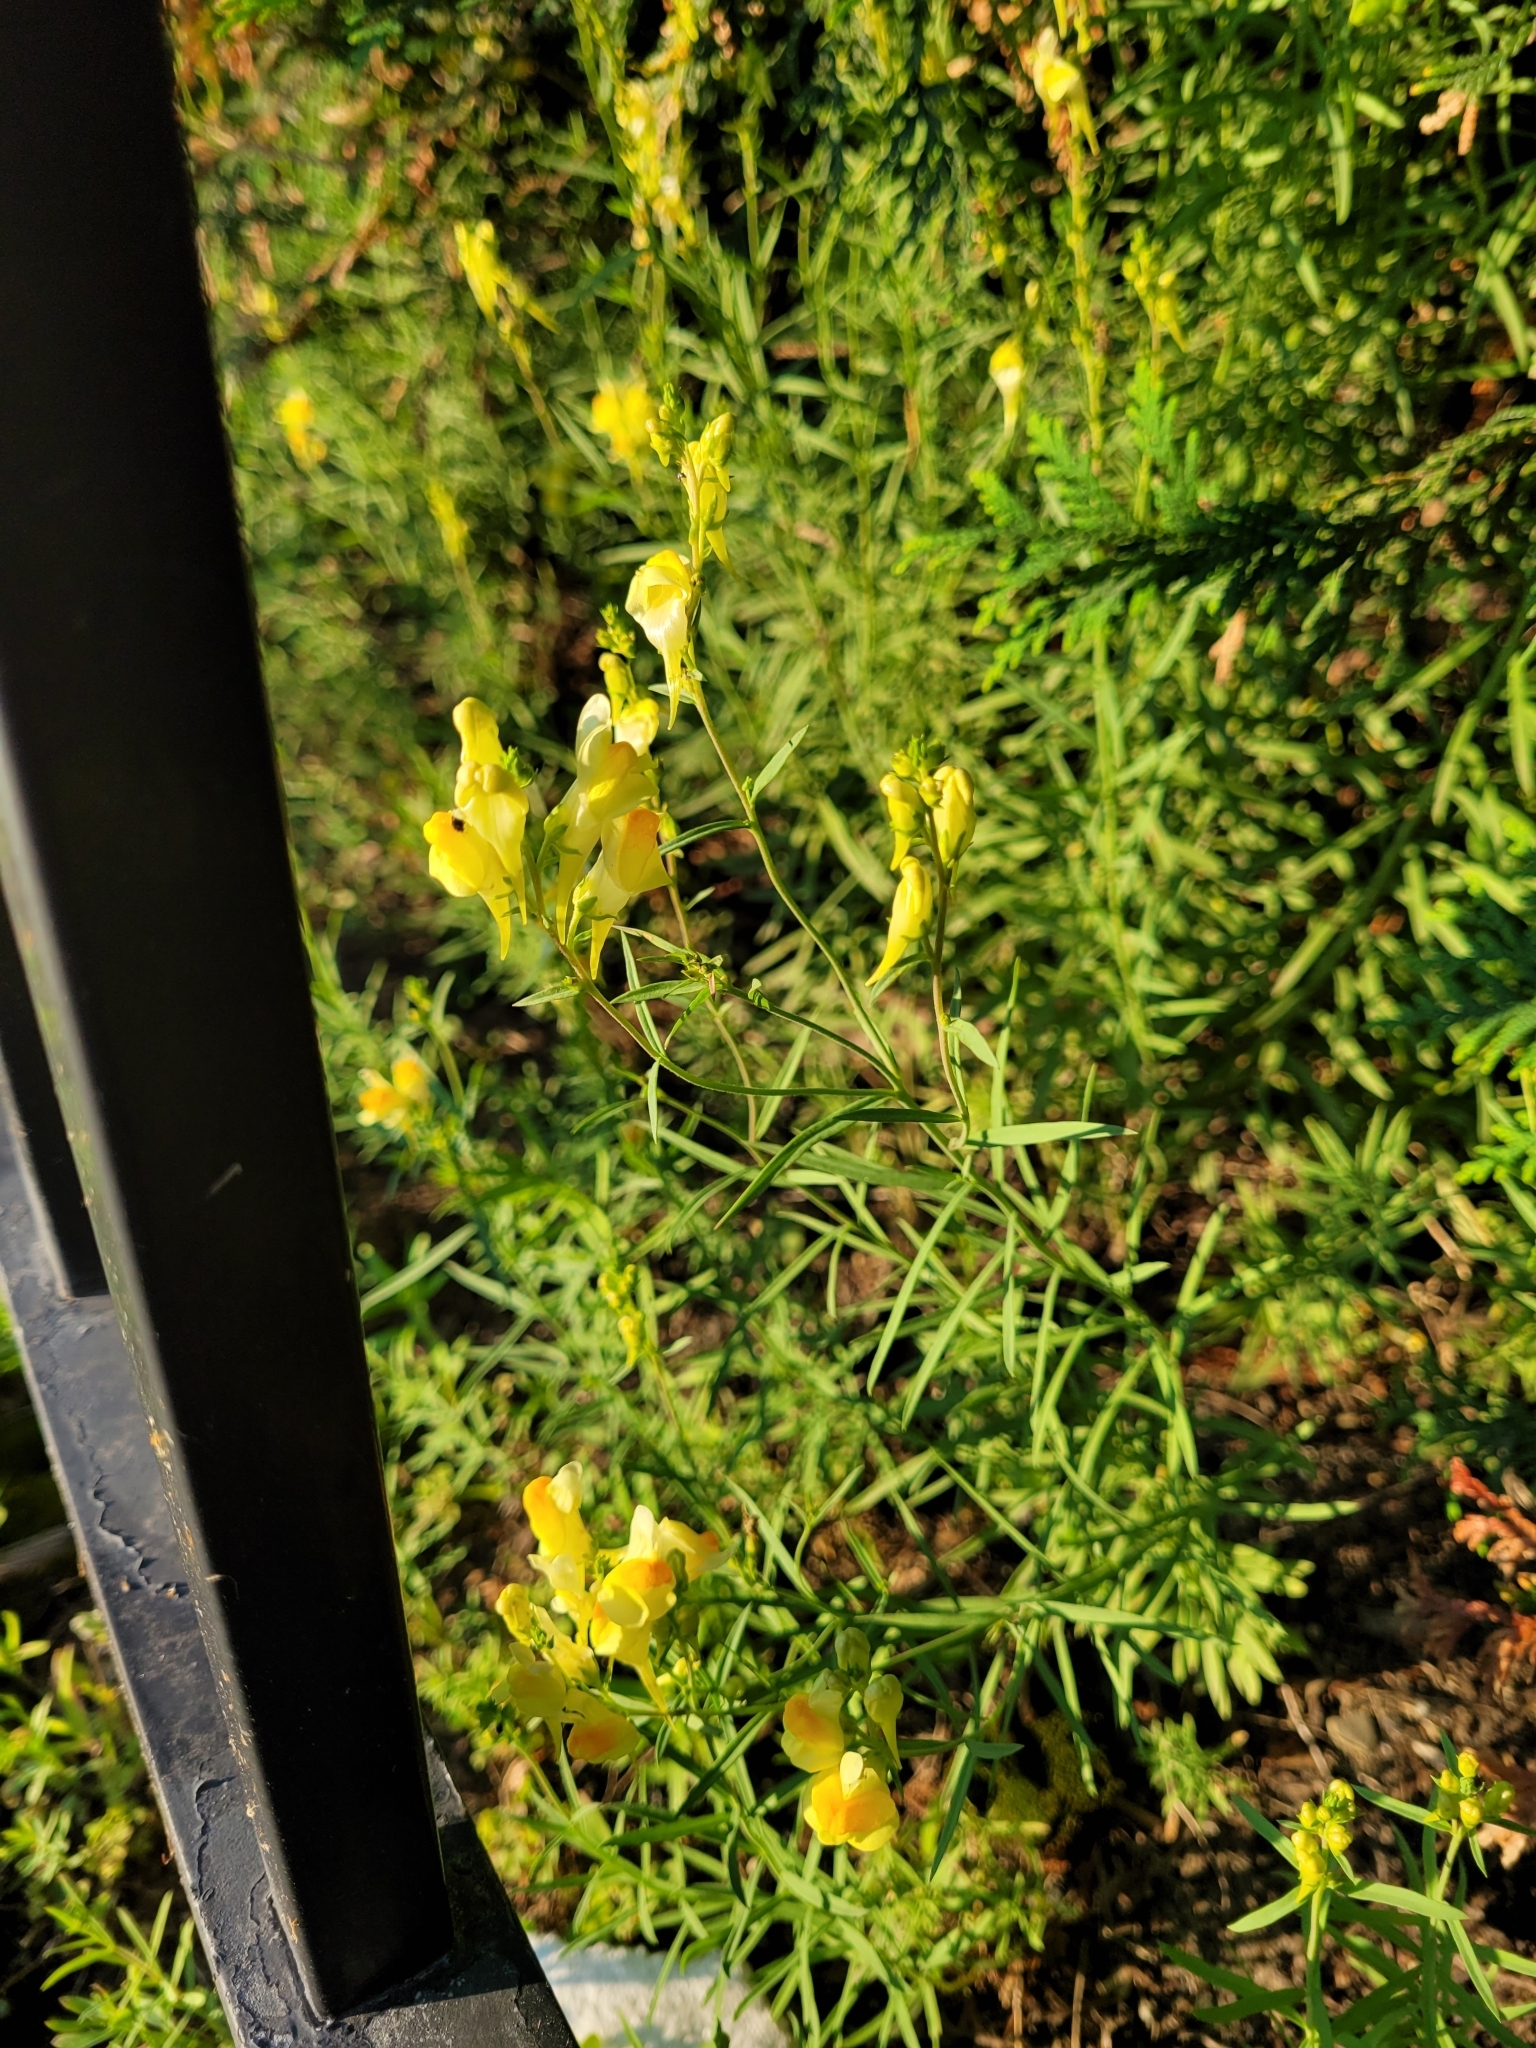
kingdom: Plantae
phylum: Tracheophyta
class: Magnoliopsida
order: Lamiales
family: Plantaginaceae
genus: Linaria
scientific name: Linaria vulgaris
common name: Butter and eggs
